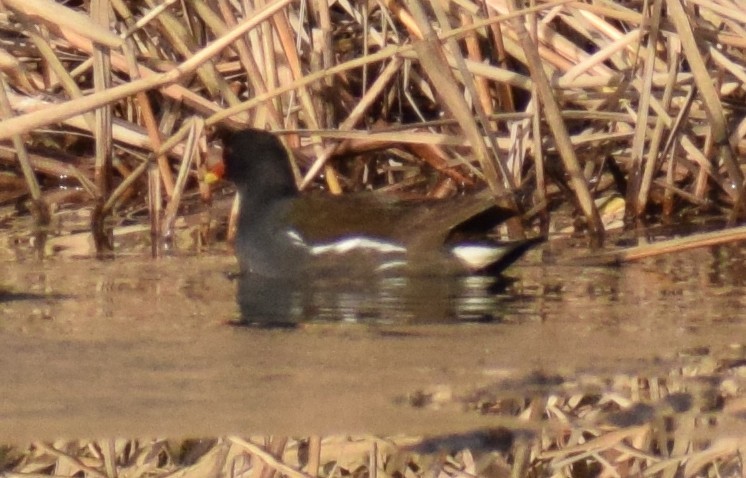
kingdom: Animalia
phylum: Chordata
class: Aves
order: Gruiformes
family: Rallidae
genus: Gallinula
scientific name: Gallinula chloropus
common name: Common moorhen
